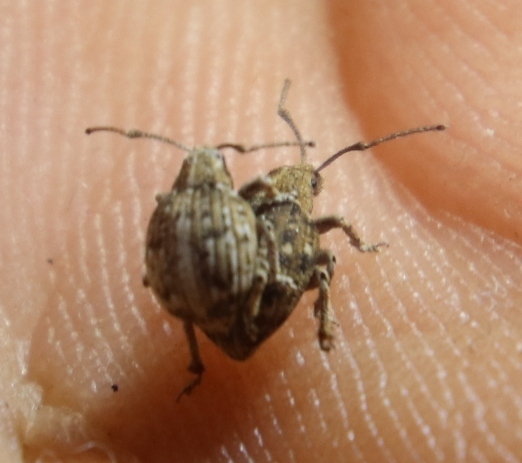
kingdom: Animalia
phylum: Arthropoda
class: Insecta
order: Coleoptera
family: Curculionidae
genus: Ellimenistes
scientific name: Ellimenistes laesicollis
